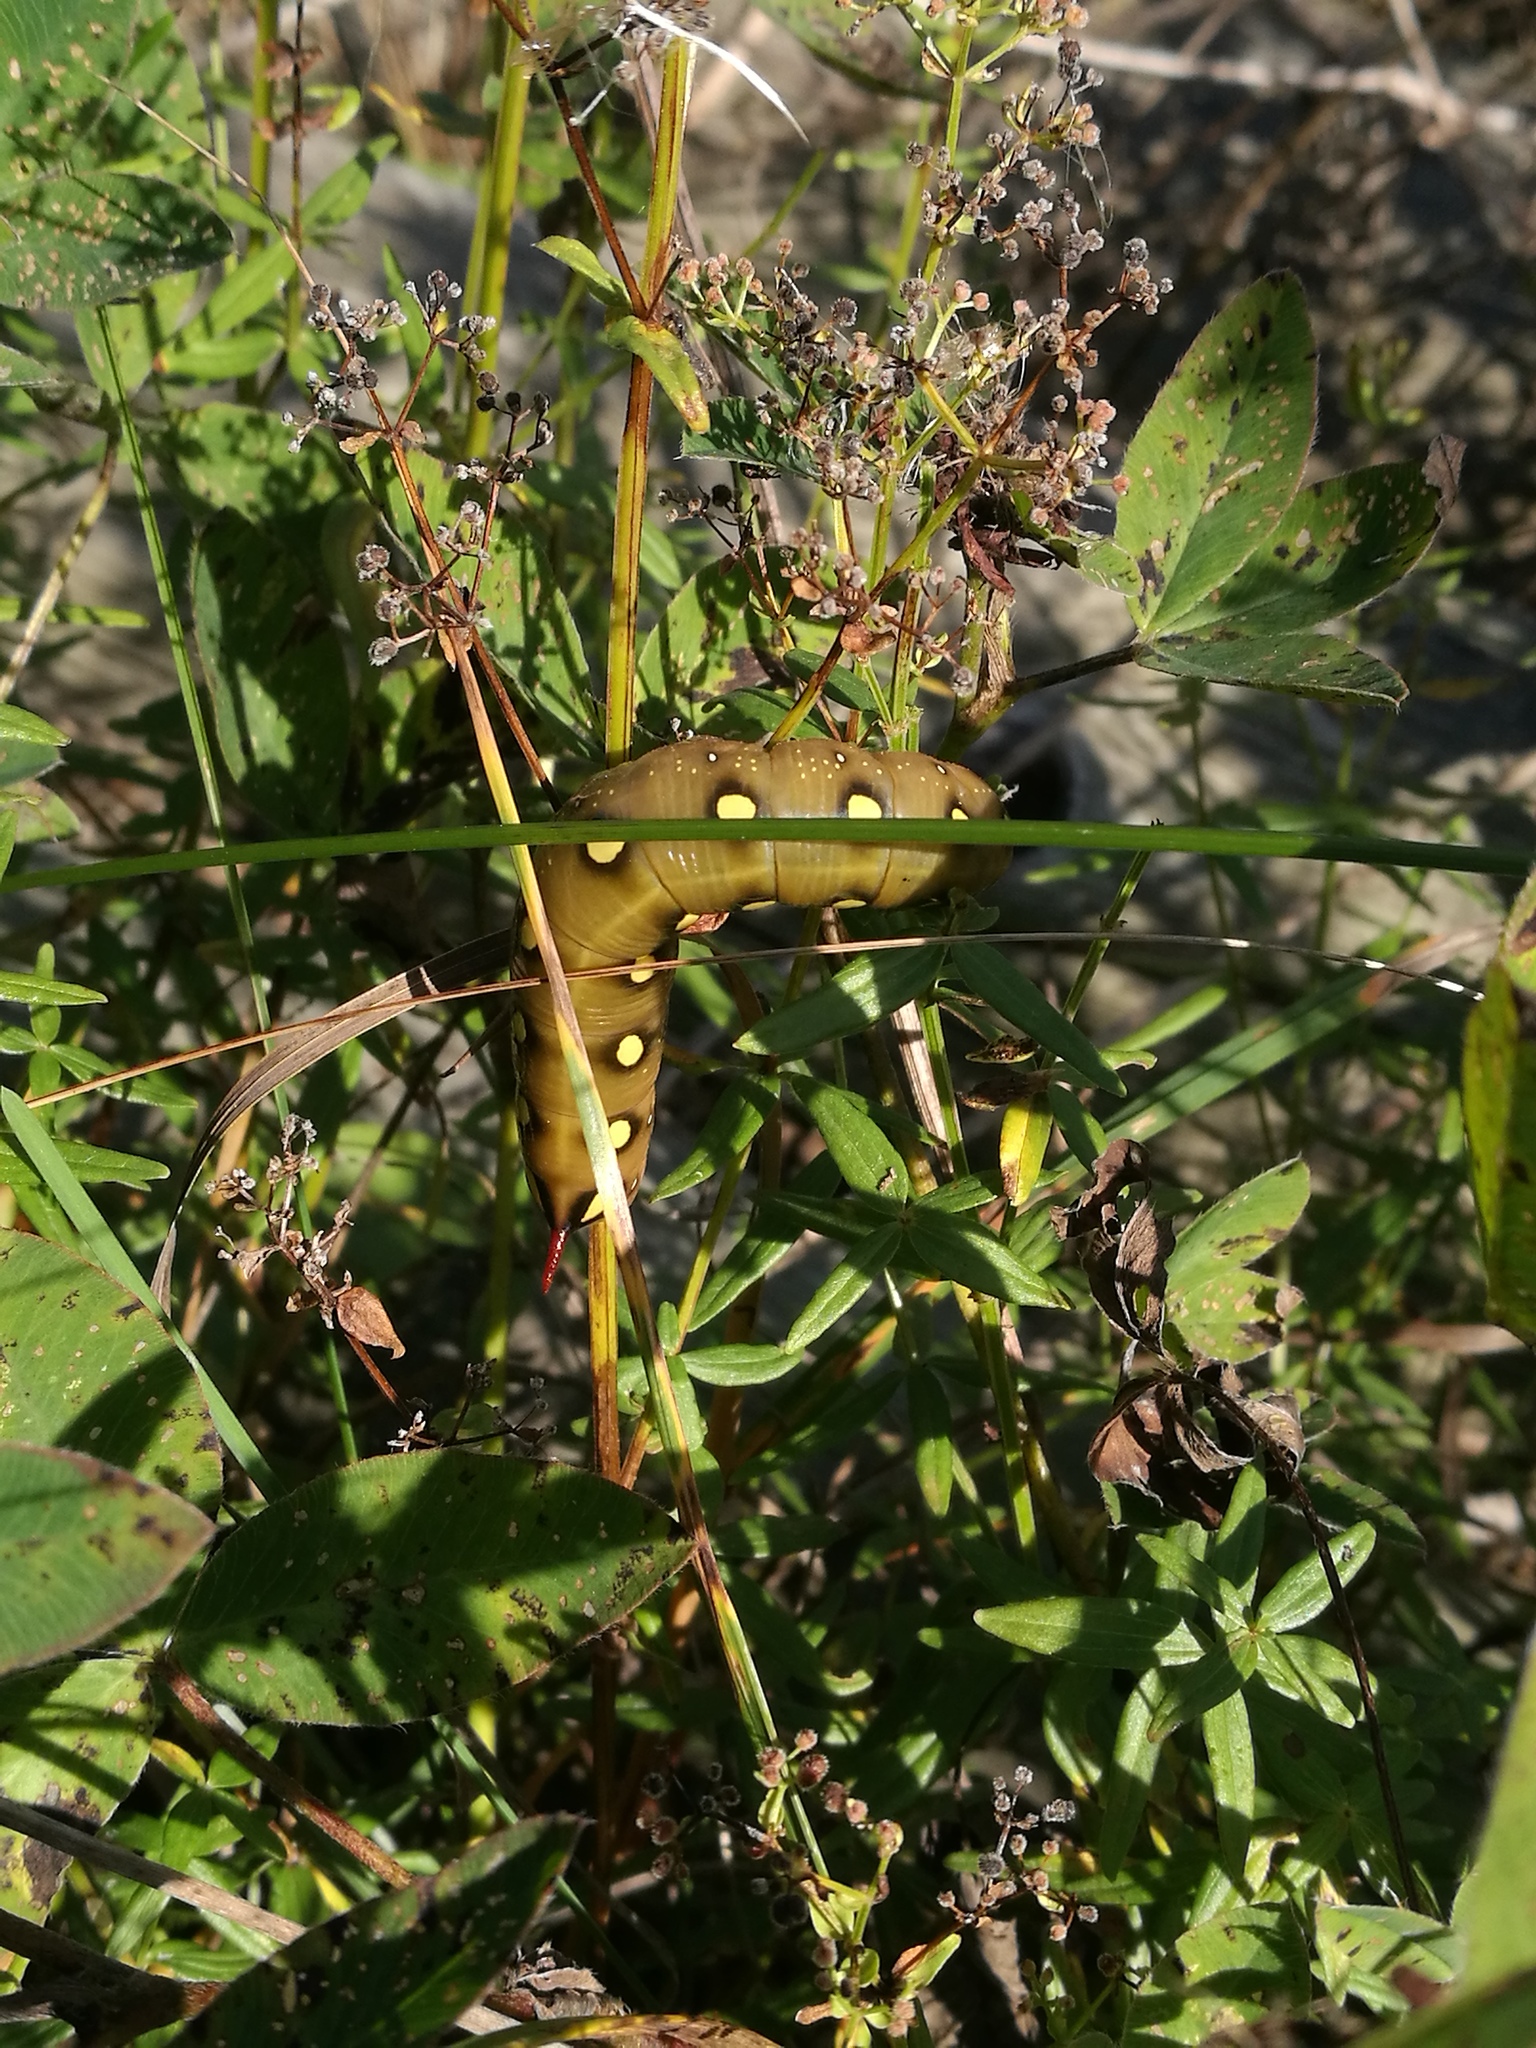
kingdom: Animalia
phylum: Arthropoda
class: Insecta
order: Lepidoptera
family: Sphingidae
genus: Hyles
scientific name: Hyles gallii
